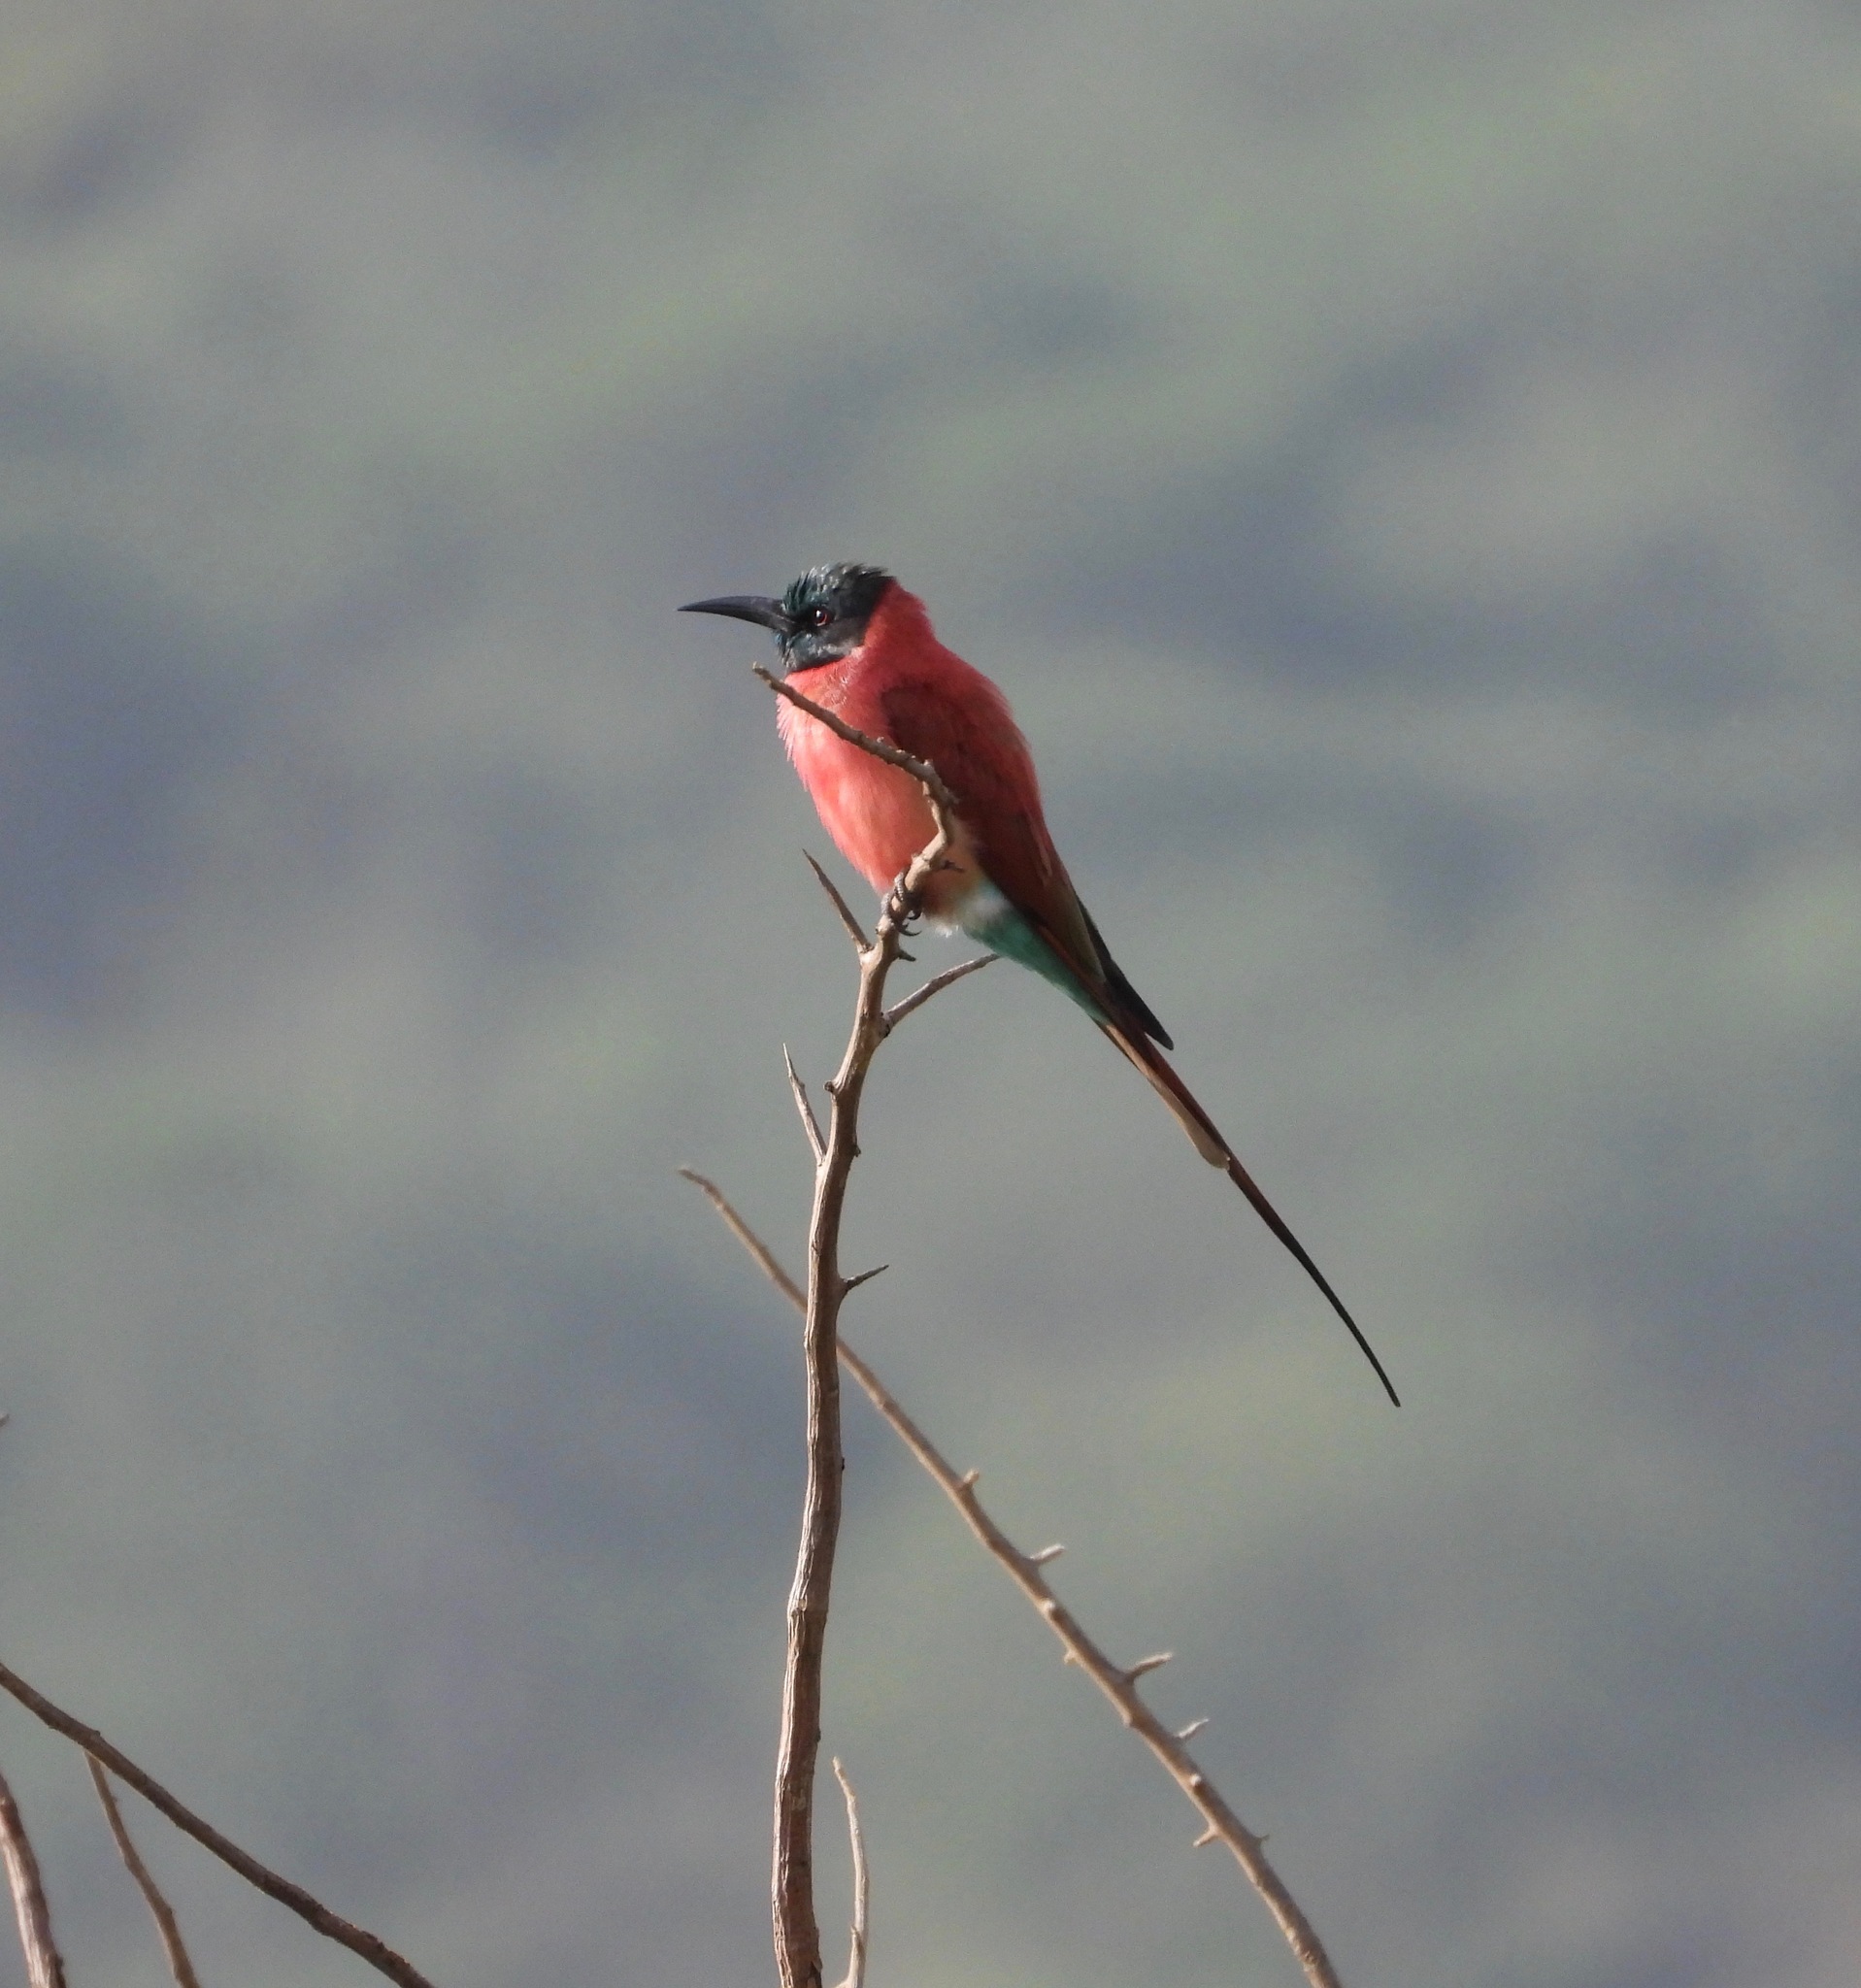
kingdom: Animalia
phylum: Chordata
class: Aves
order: Coraciiformes
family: Meropidae
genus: Merops
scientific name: Merops nubicus
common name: Northern carmine bee-eater
